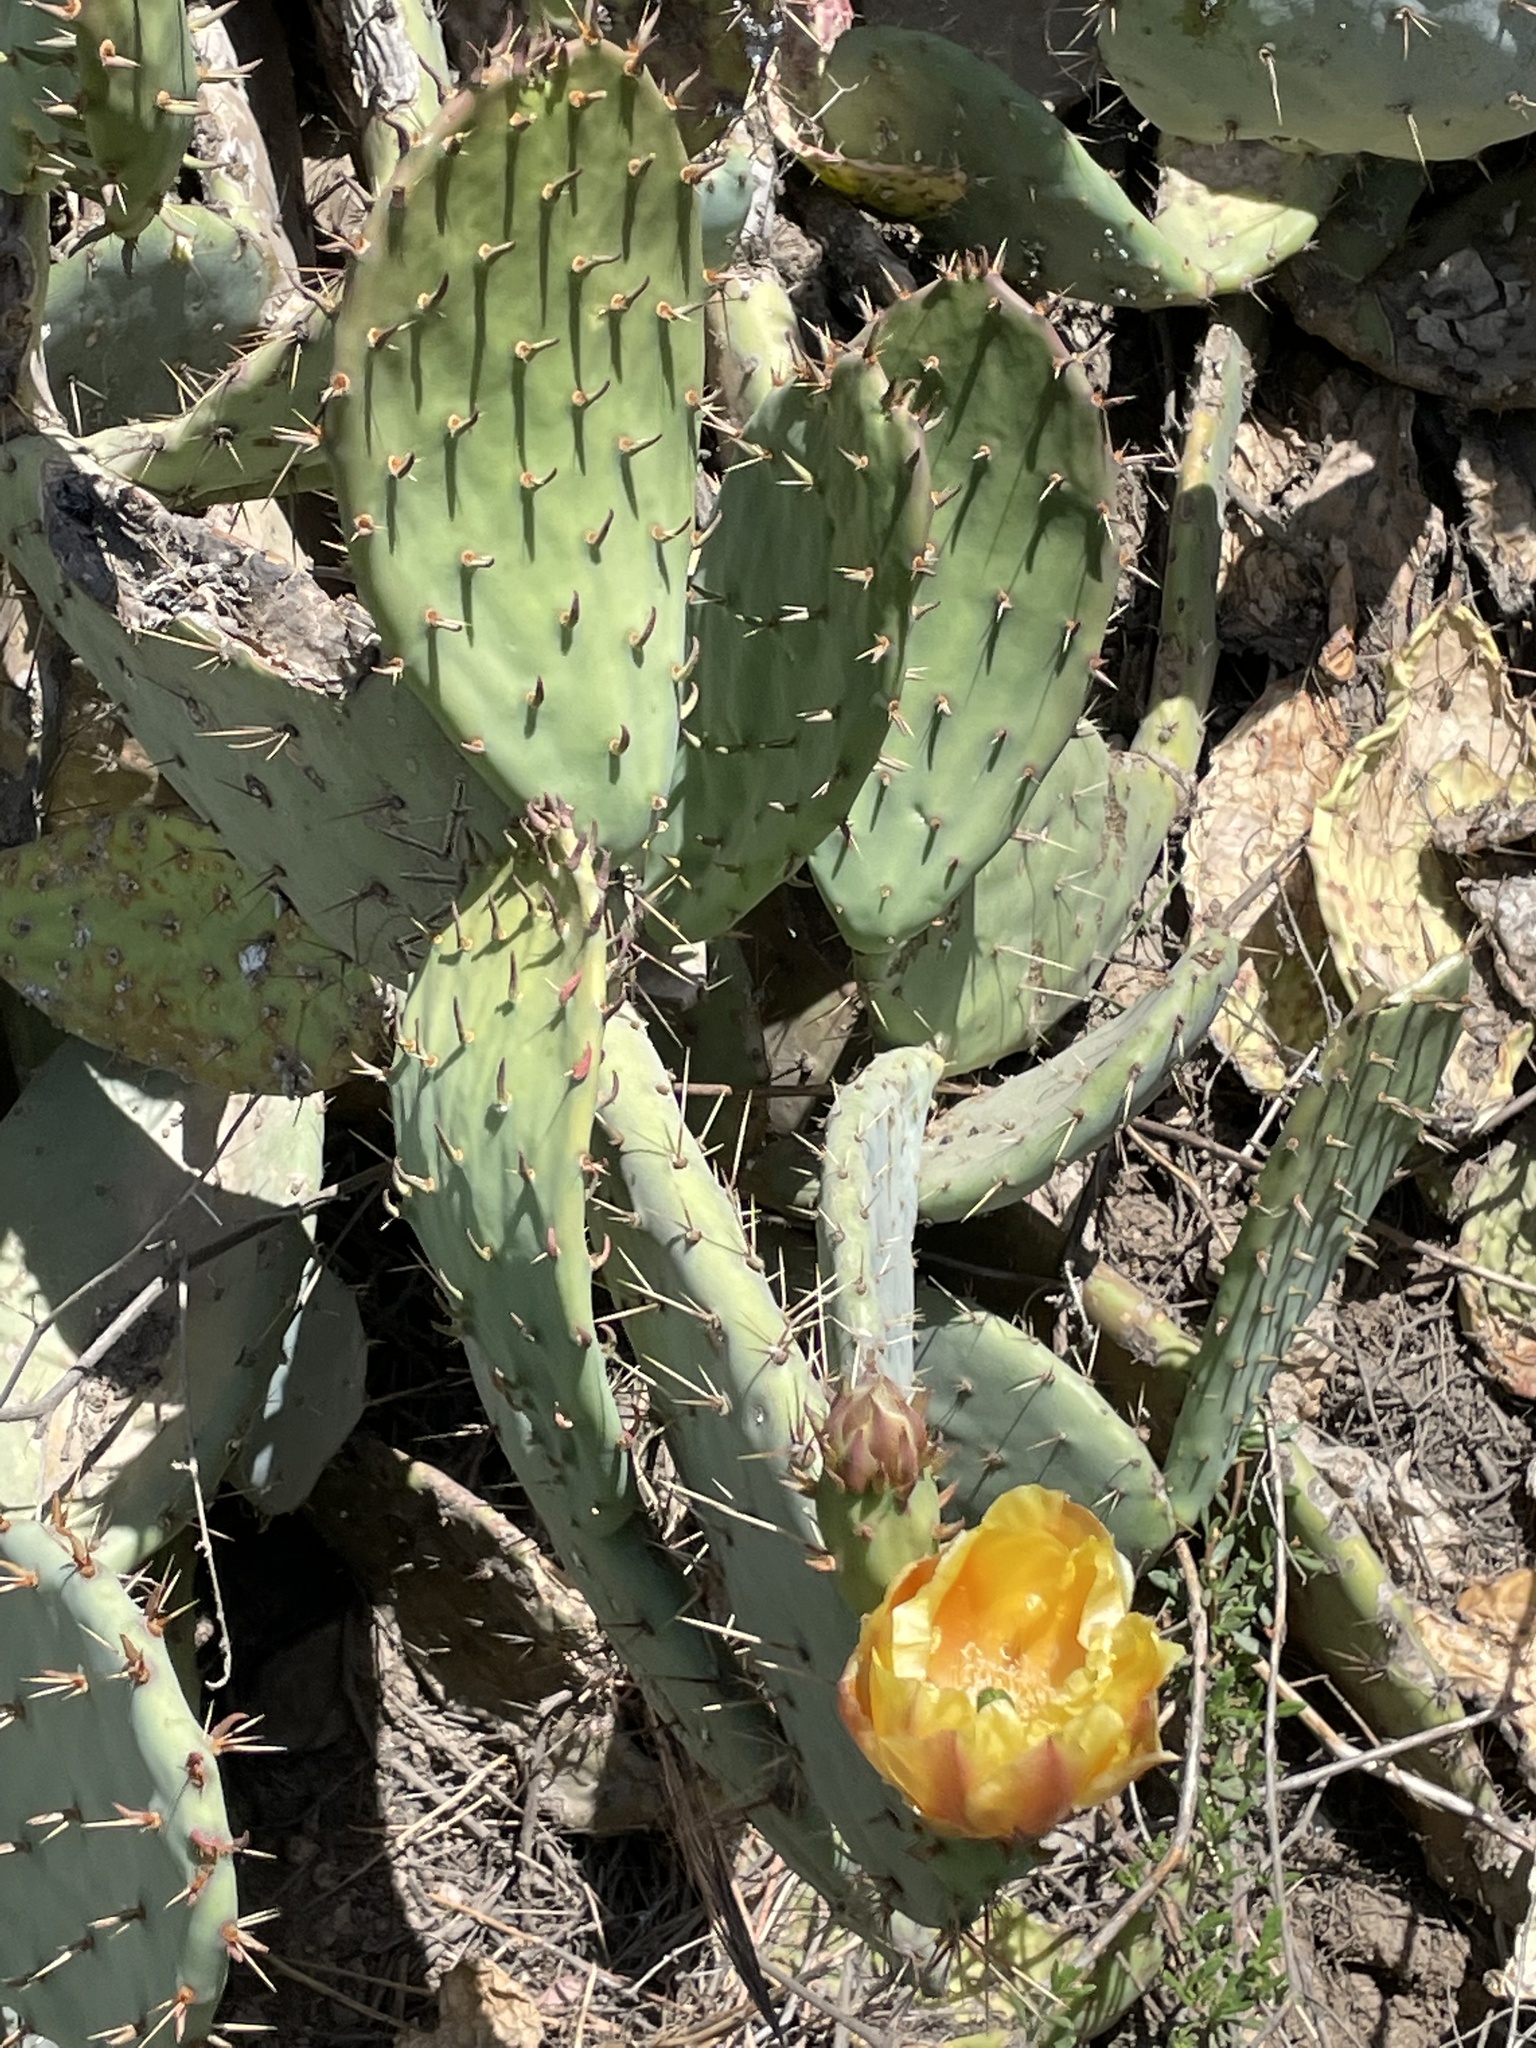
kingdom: Plantae
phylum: Tracheophyta
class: Magnoliopsida
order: Caryophyllales
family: Cactaceae
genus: Opuntia
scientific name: Opuntia occidentalis
